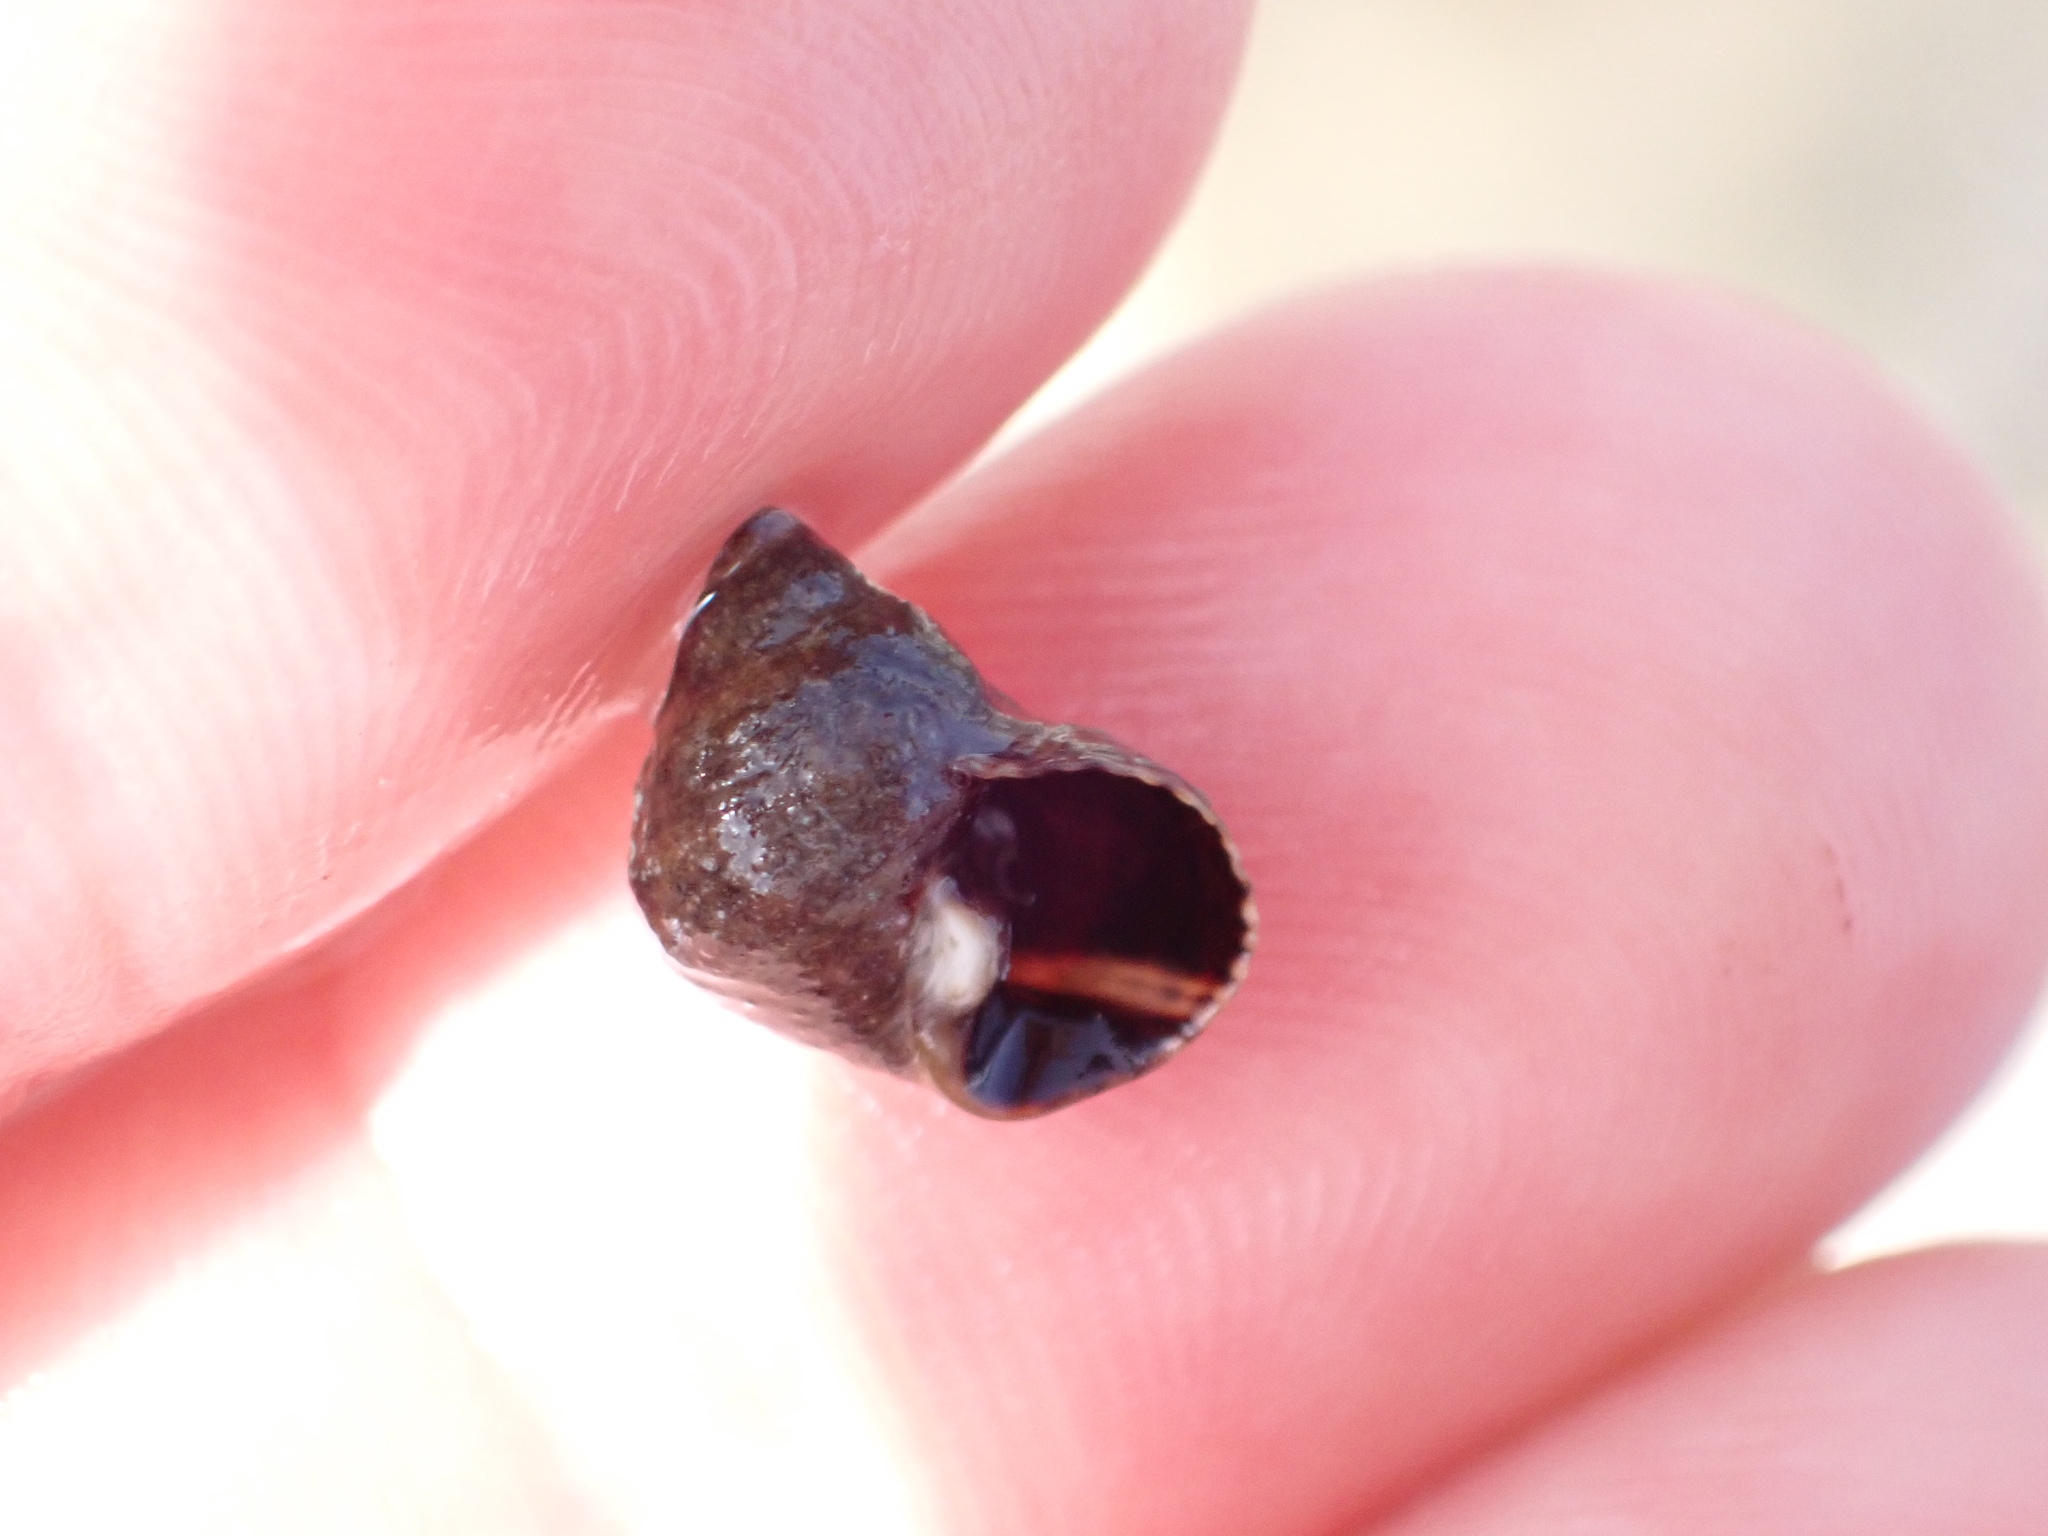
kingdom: Animalia
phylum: Mollusca
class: Gastropoda
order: Littorinimorpha
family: Littorinidae
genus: Tectarius
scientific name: Tectarius striatus
